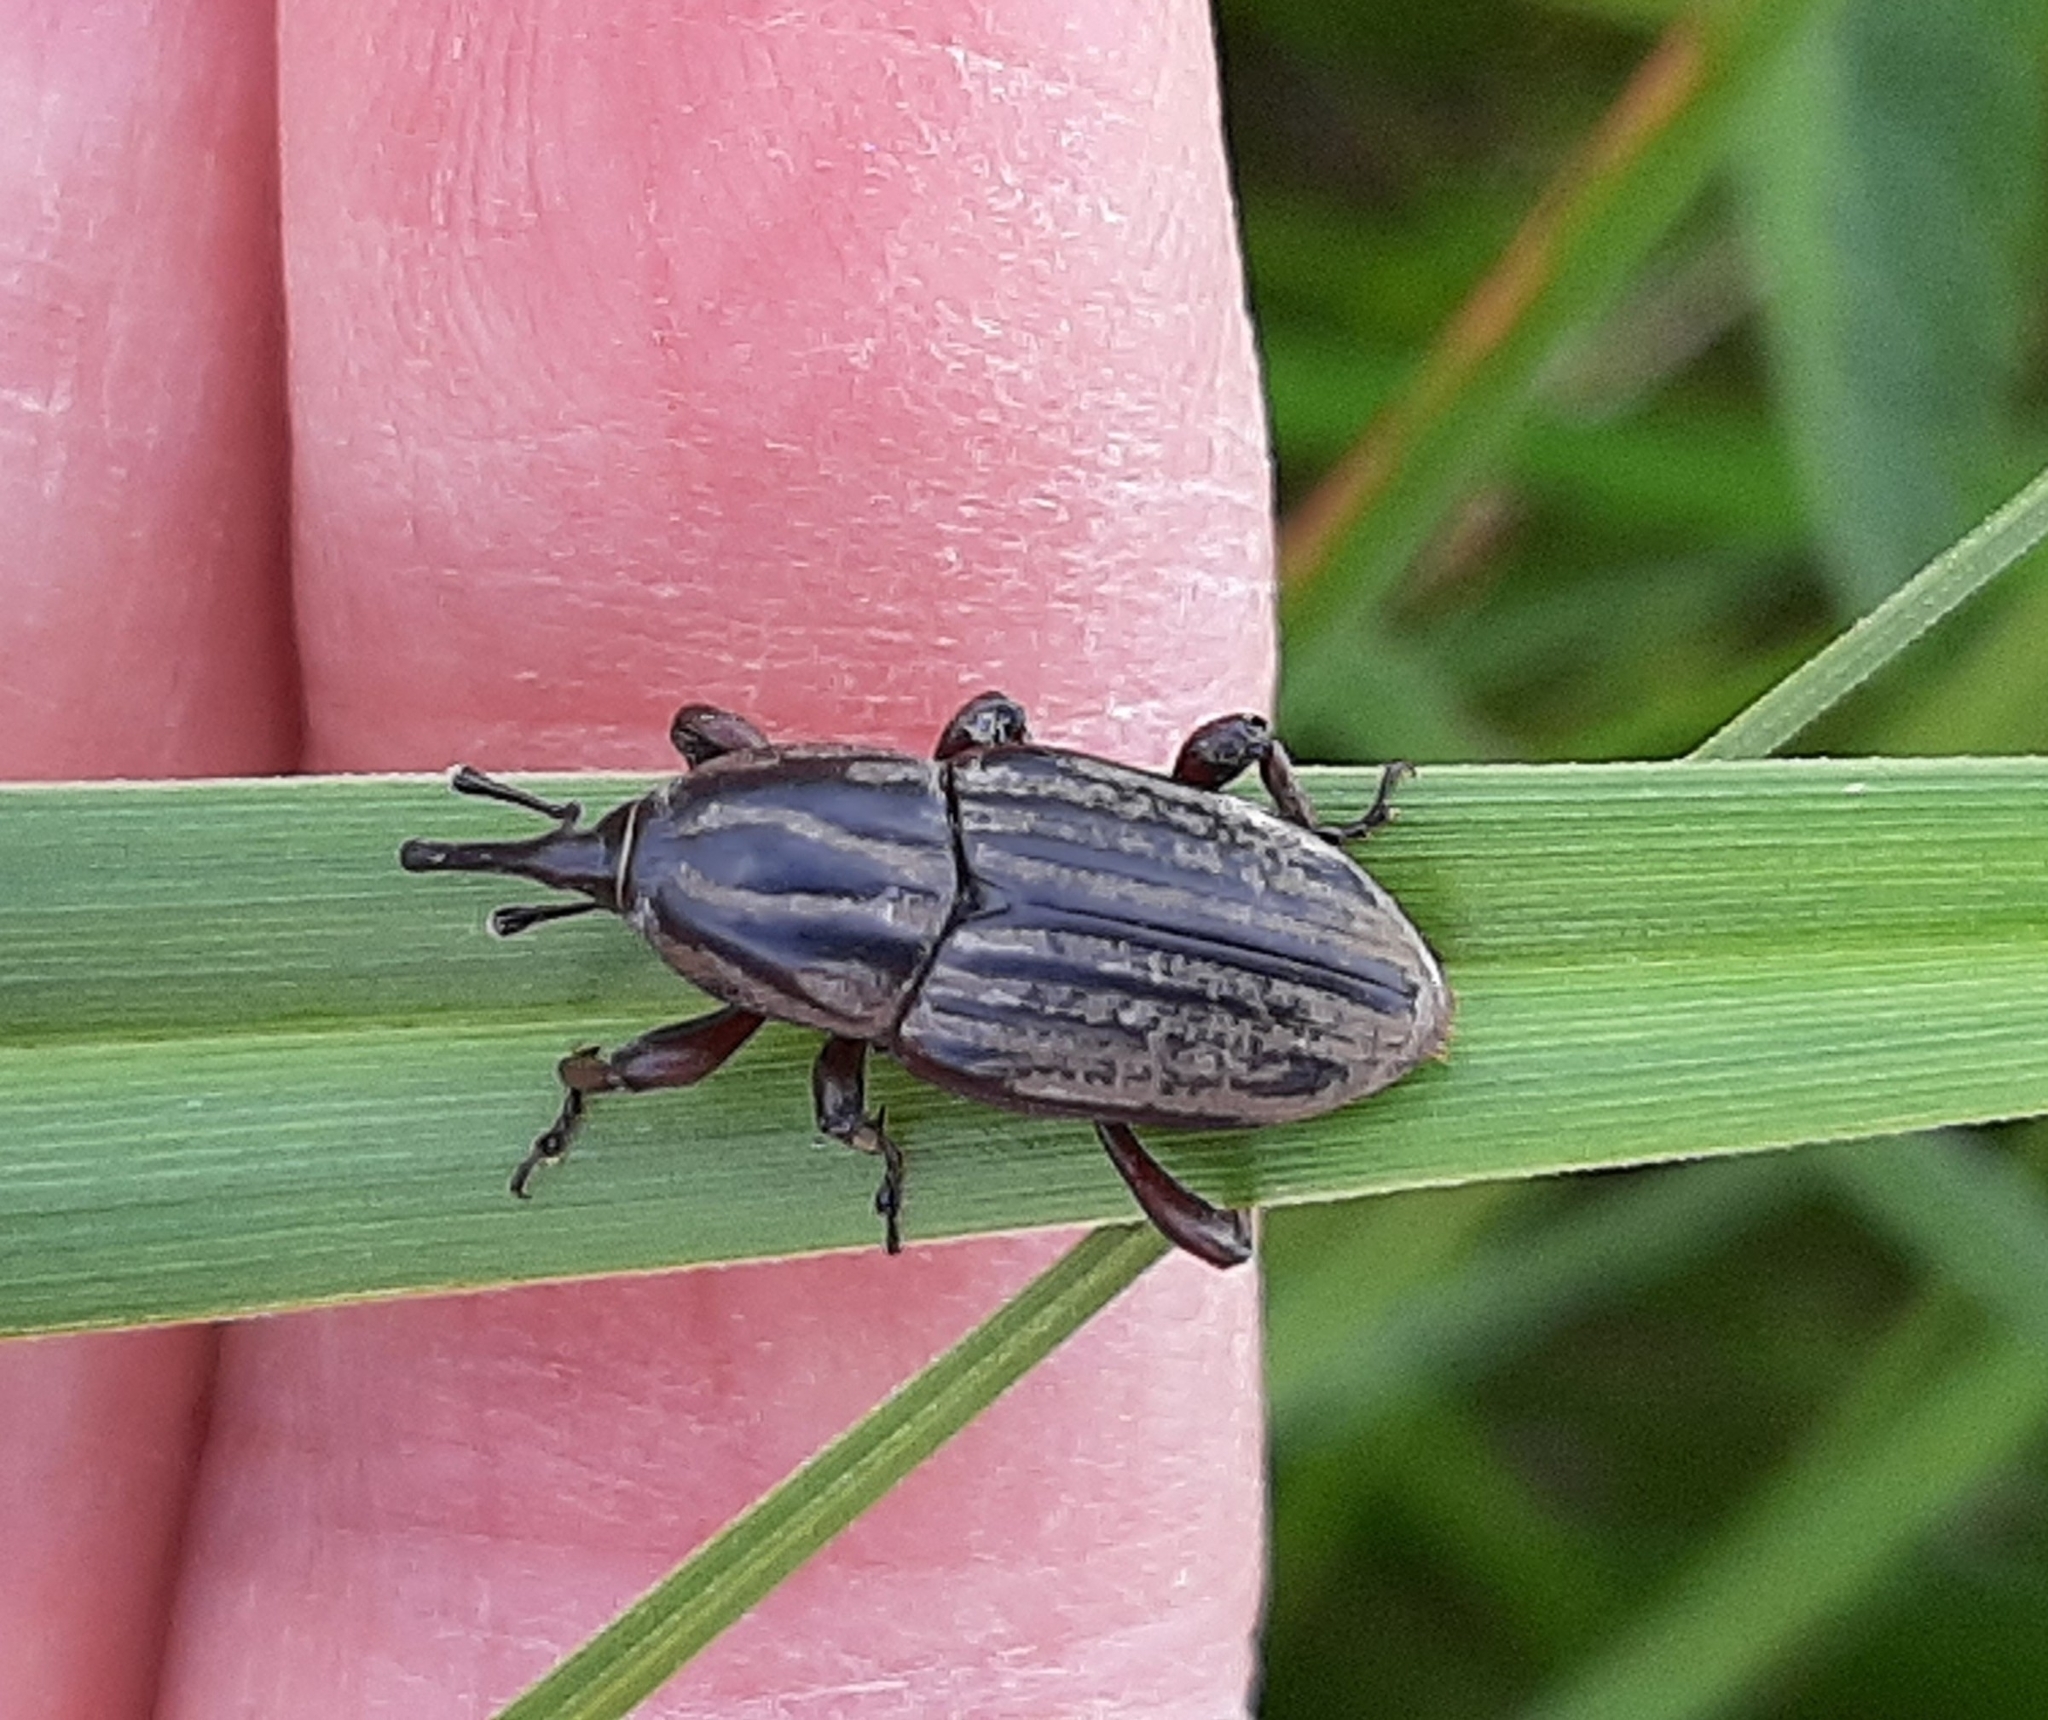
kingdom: Animalia
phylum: Arthropoda
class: Insecta
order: Coleoptera
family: Dryophthoridae
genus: Sphenophorus
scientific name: Sphenophorus australis
